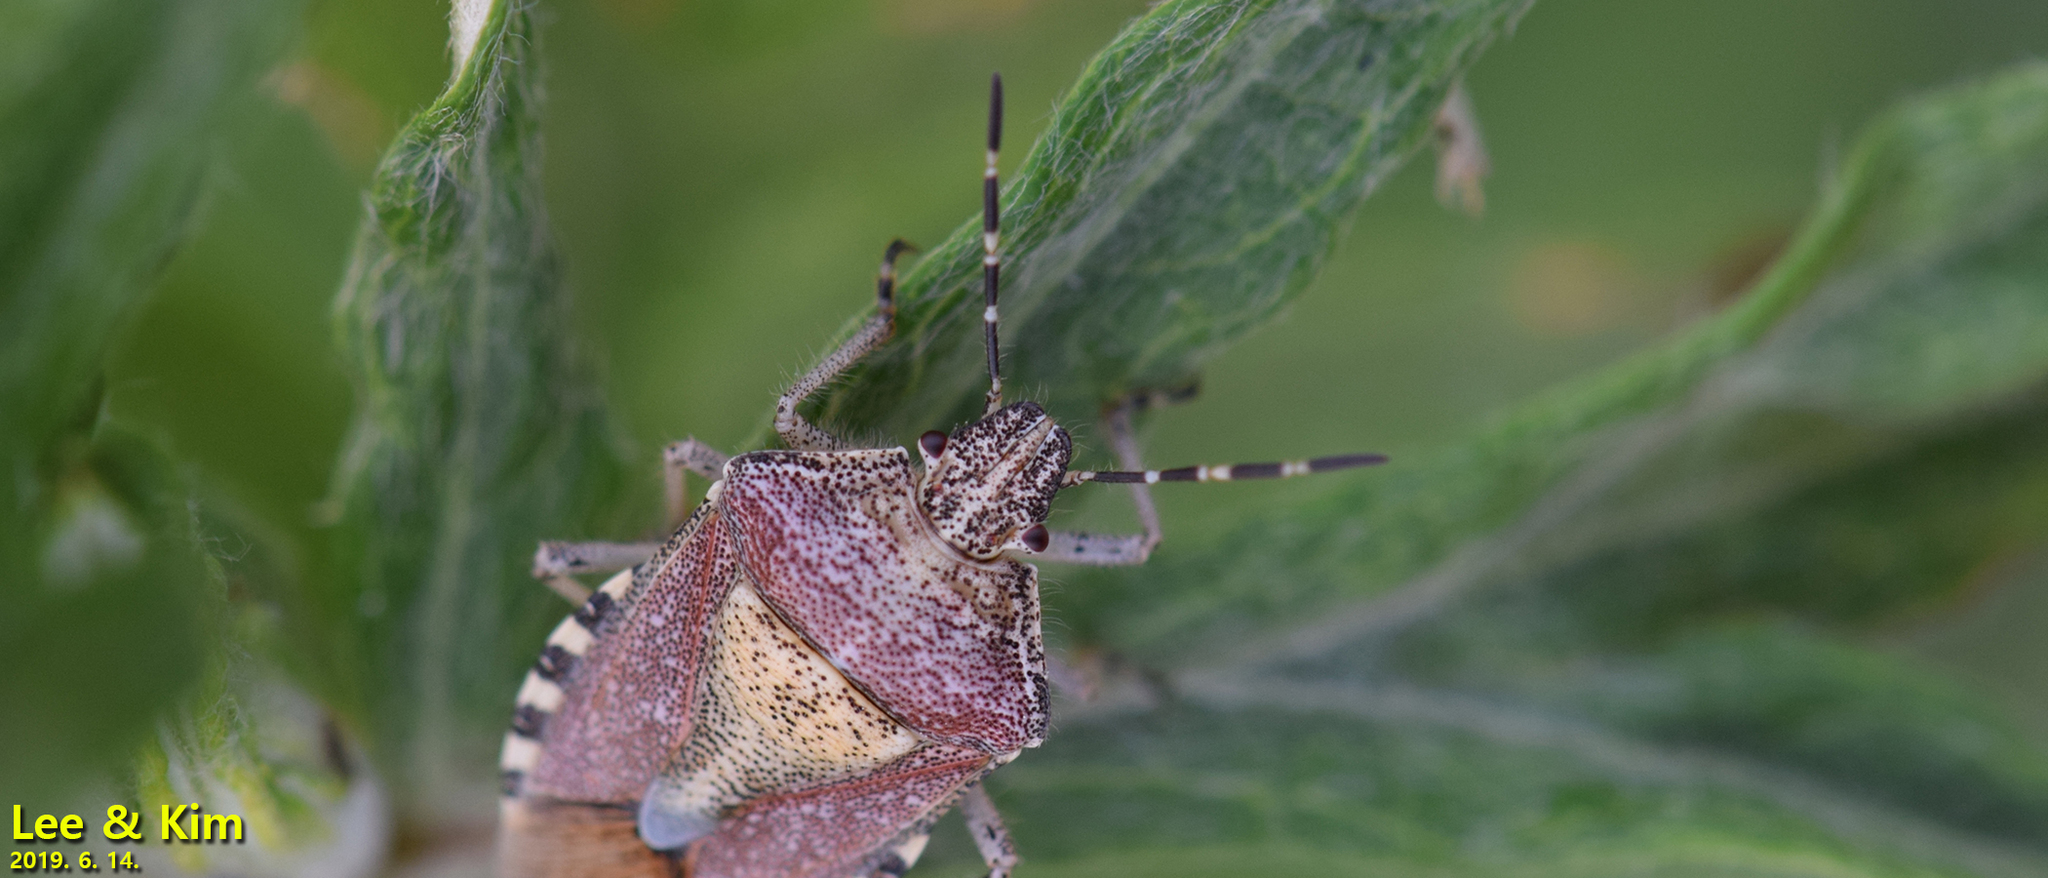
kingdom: Animalia
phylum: Arthropoda
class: Insecta
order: Hemiptera
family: Pentatomidae
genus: Dolycoris
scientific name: Dolycoris baccarum
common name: Sloe bug
